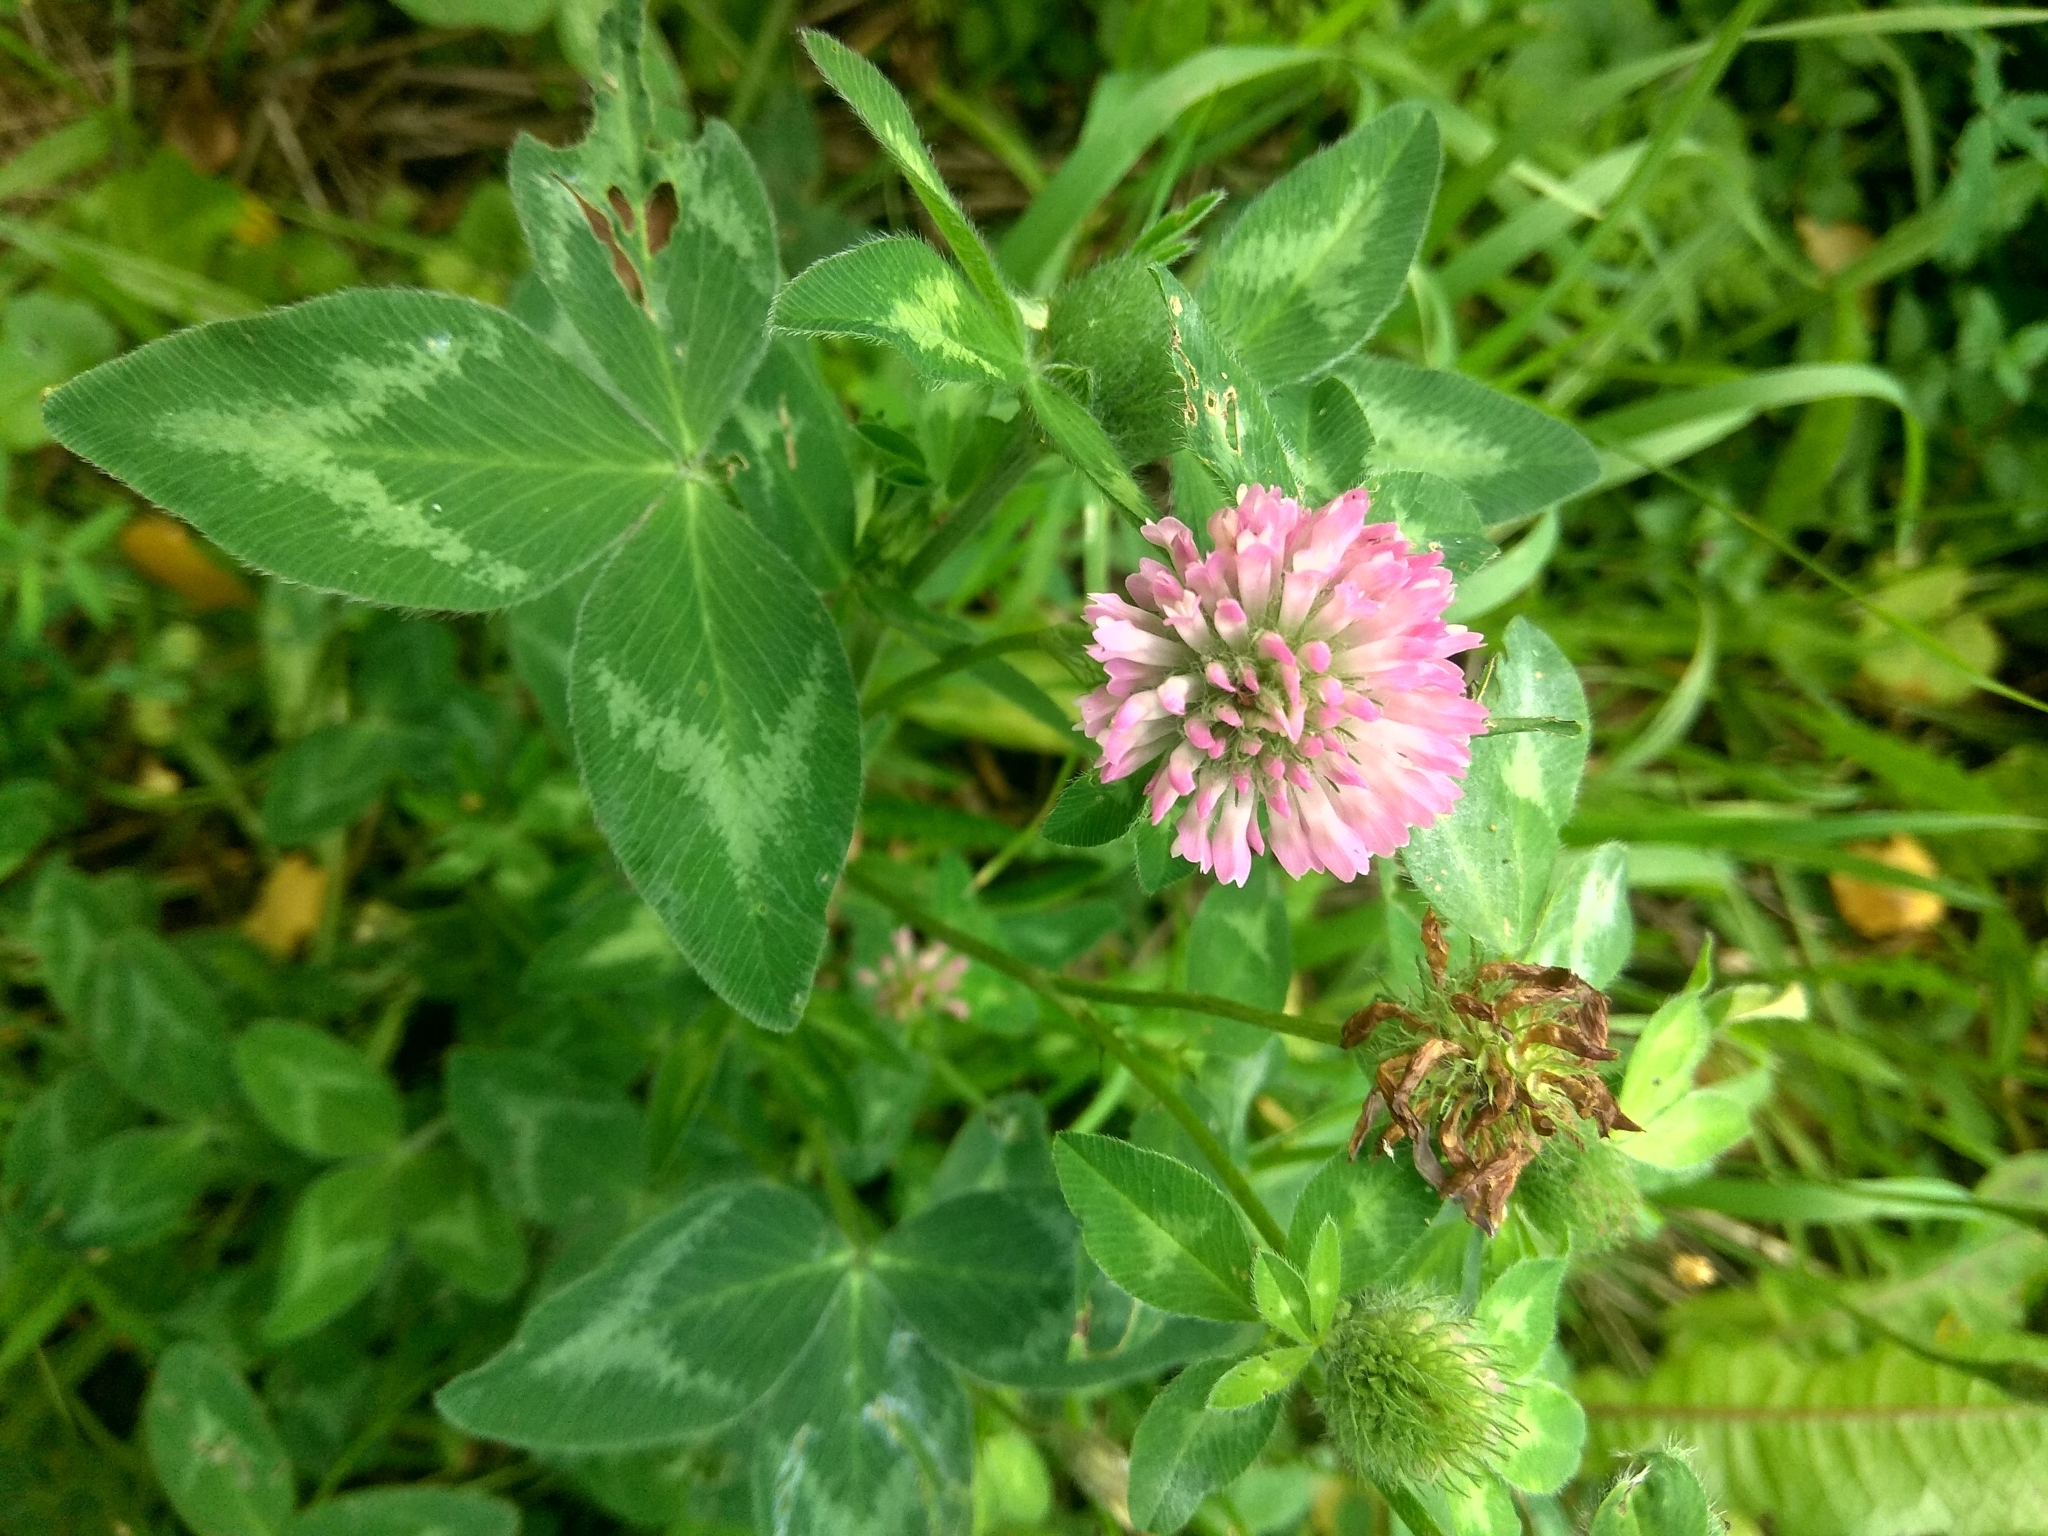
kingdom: Plantae
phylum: Tracheophyta
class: Magnoliopsida
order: Fabales
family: Fabaceae
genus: Trifolium
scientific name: Trifolium pratense
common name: Red clover
